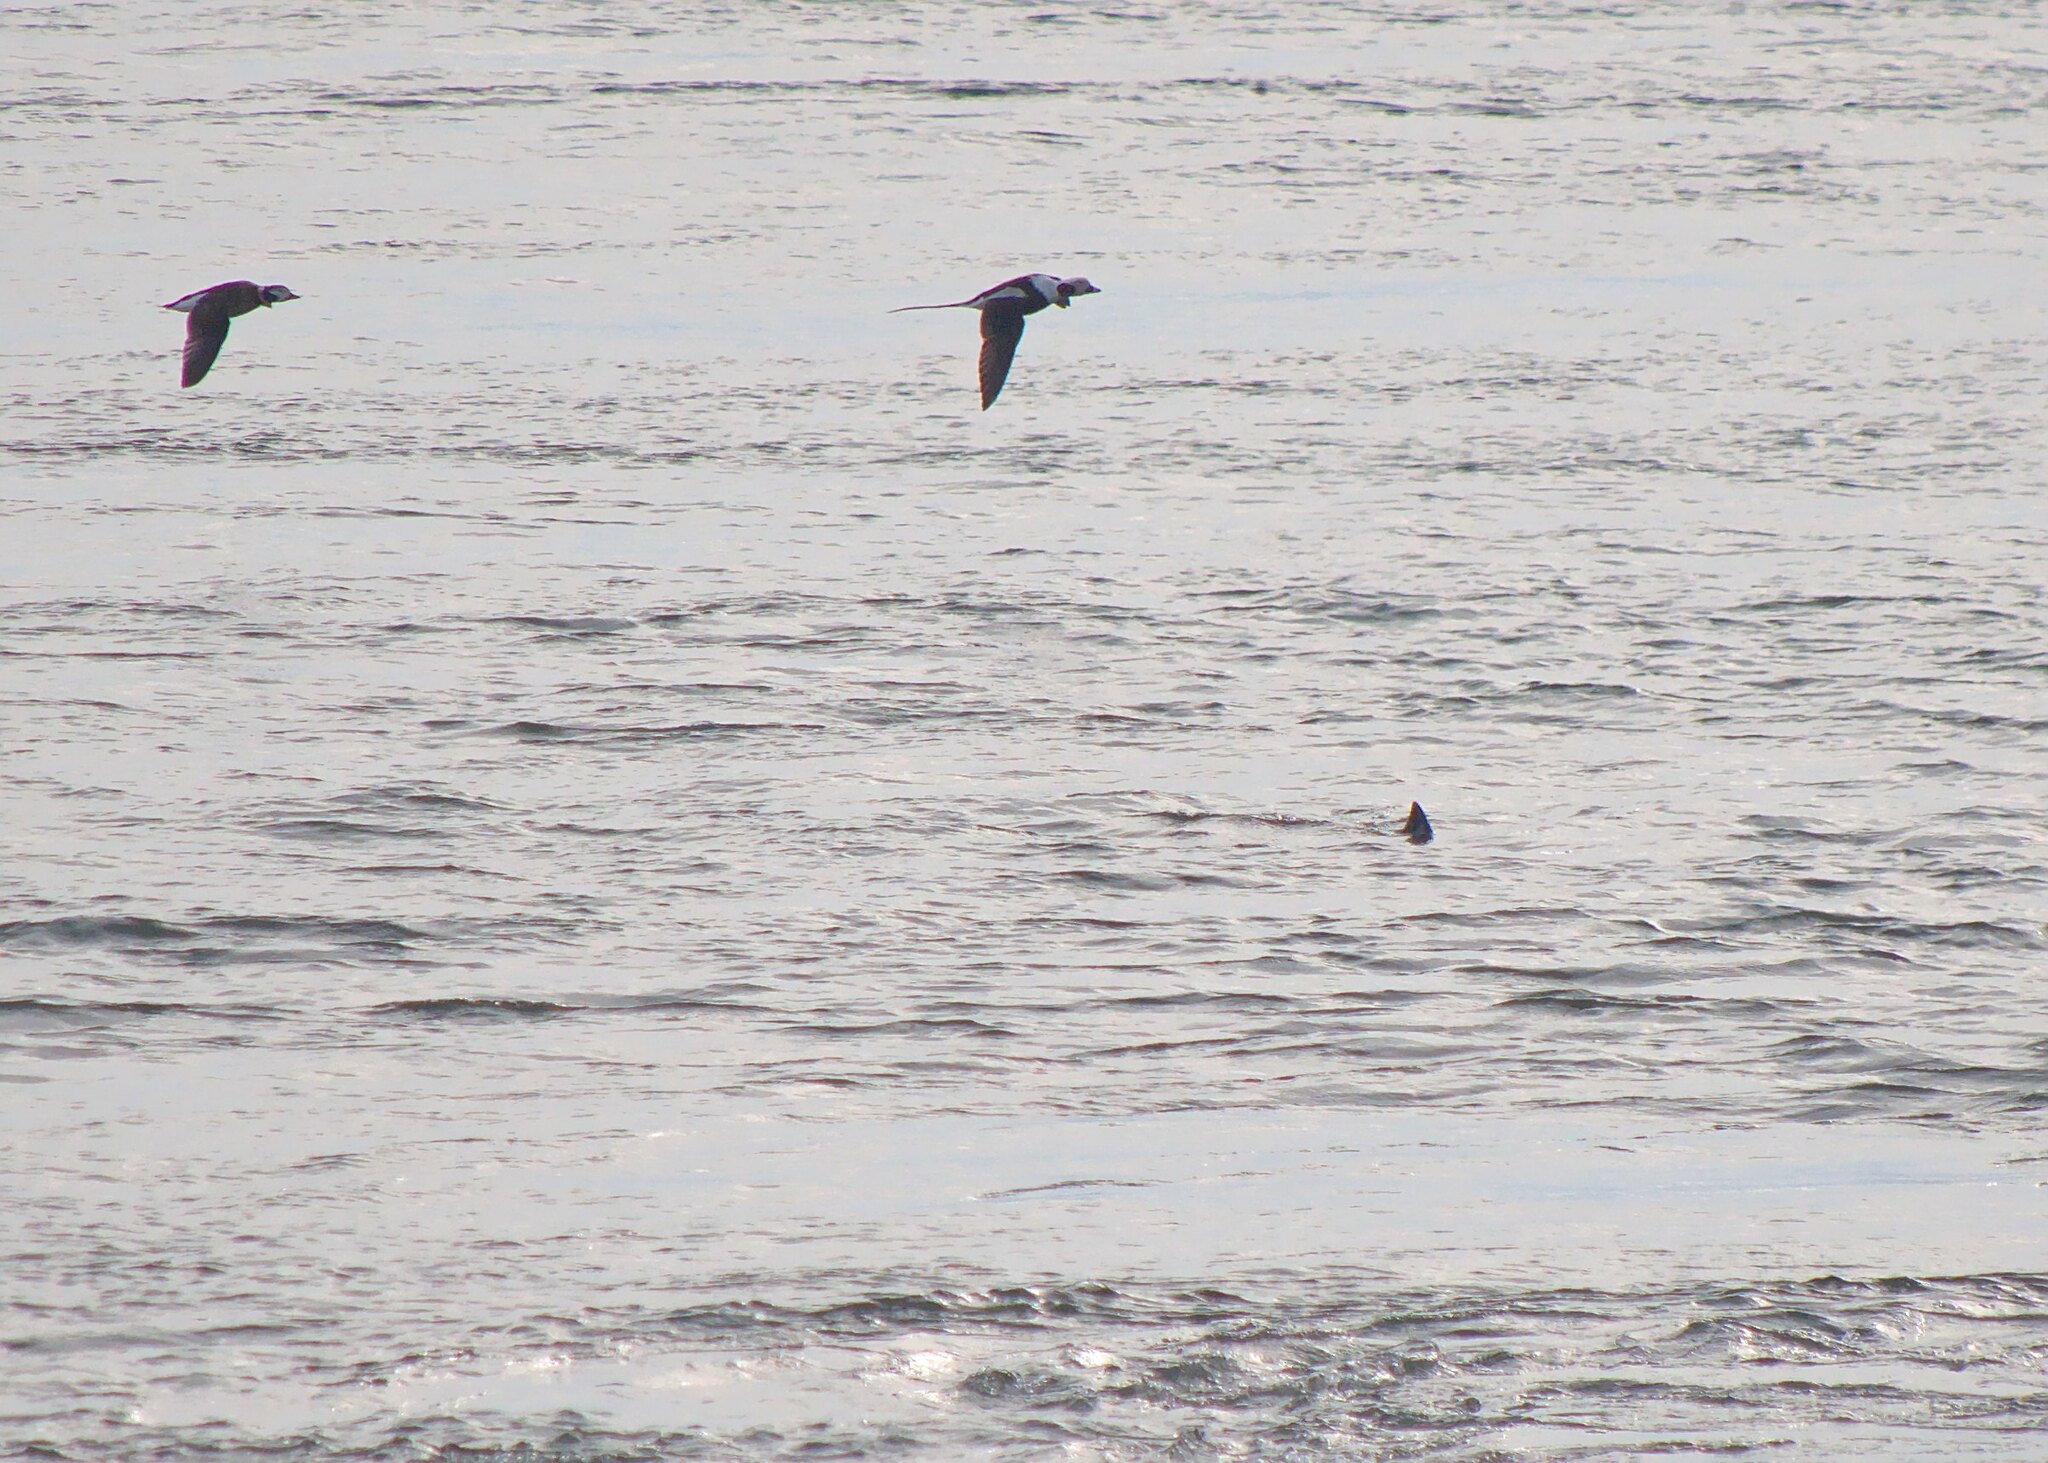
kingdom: Animalia
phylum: Chordata
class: Aves
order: Anseriformes
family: Anatidae
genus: Clangula
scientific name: Clangula hyemalis
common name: Long-tailed duck
